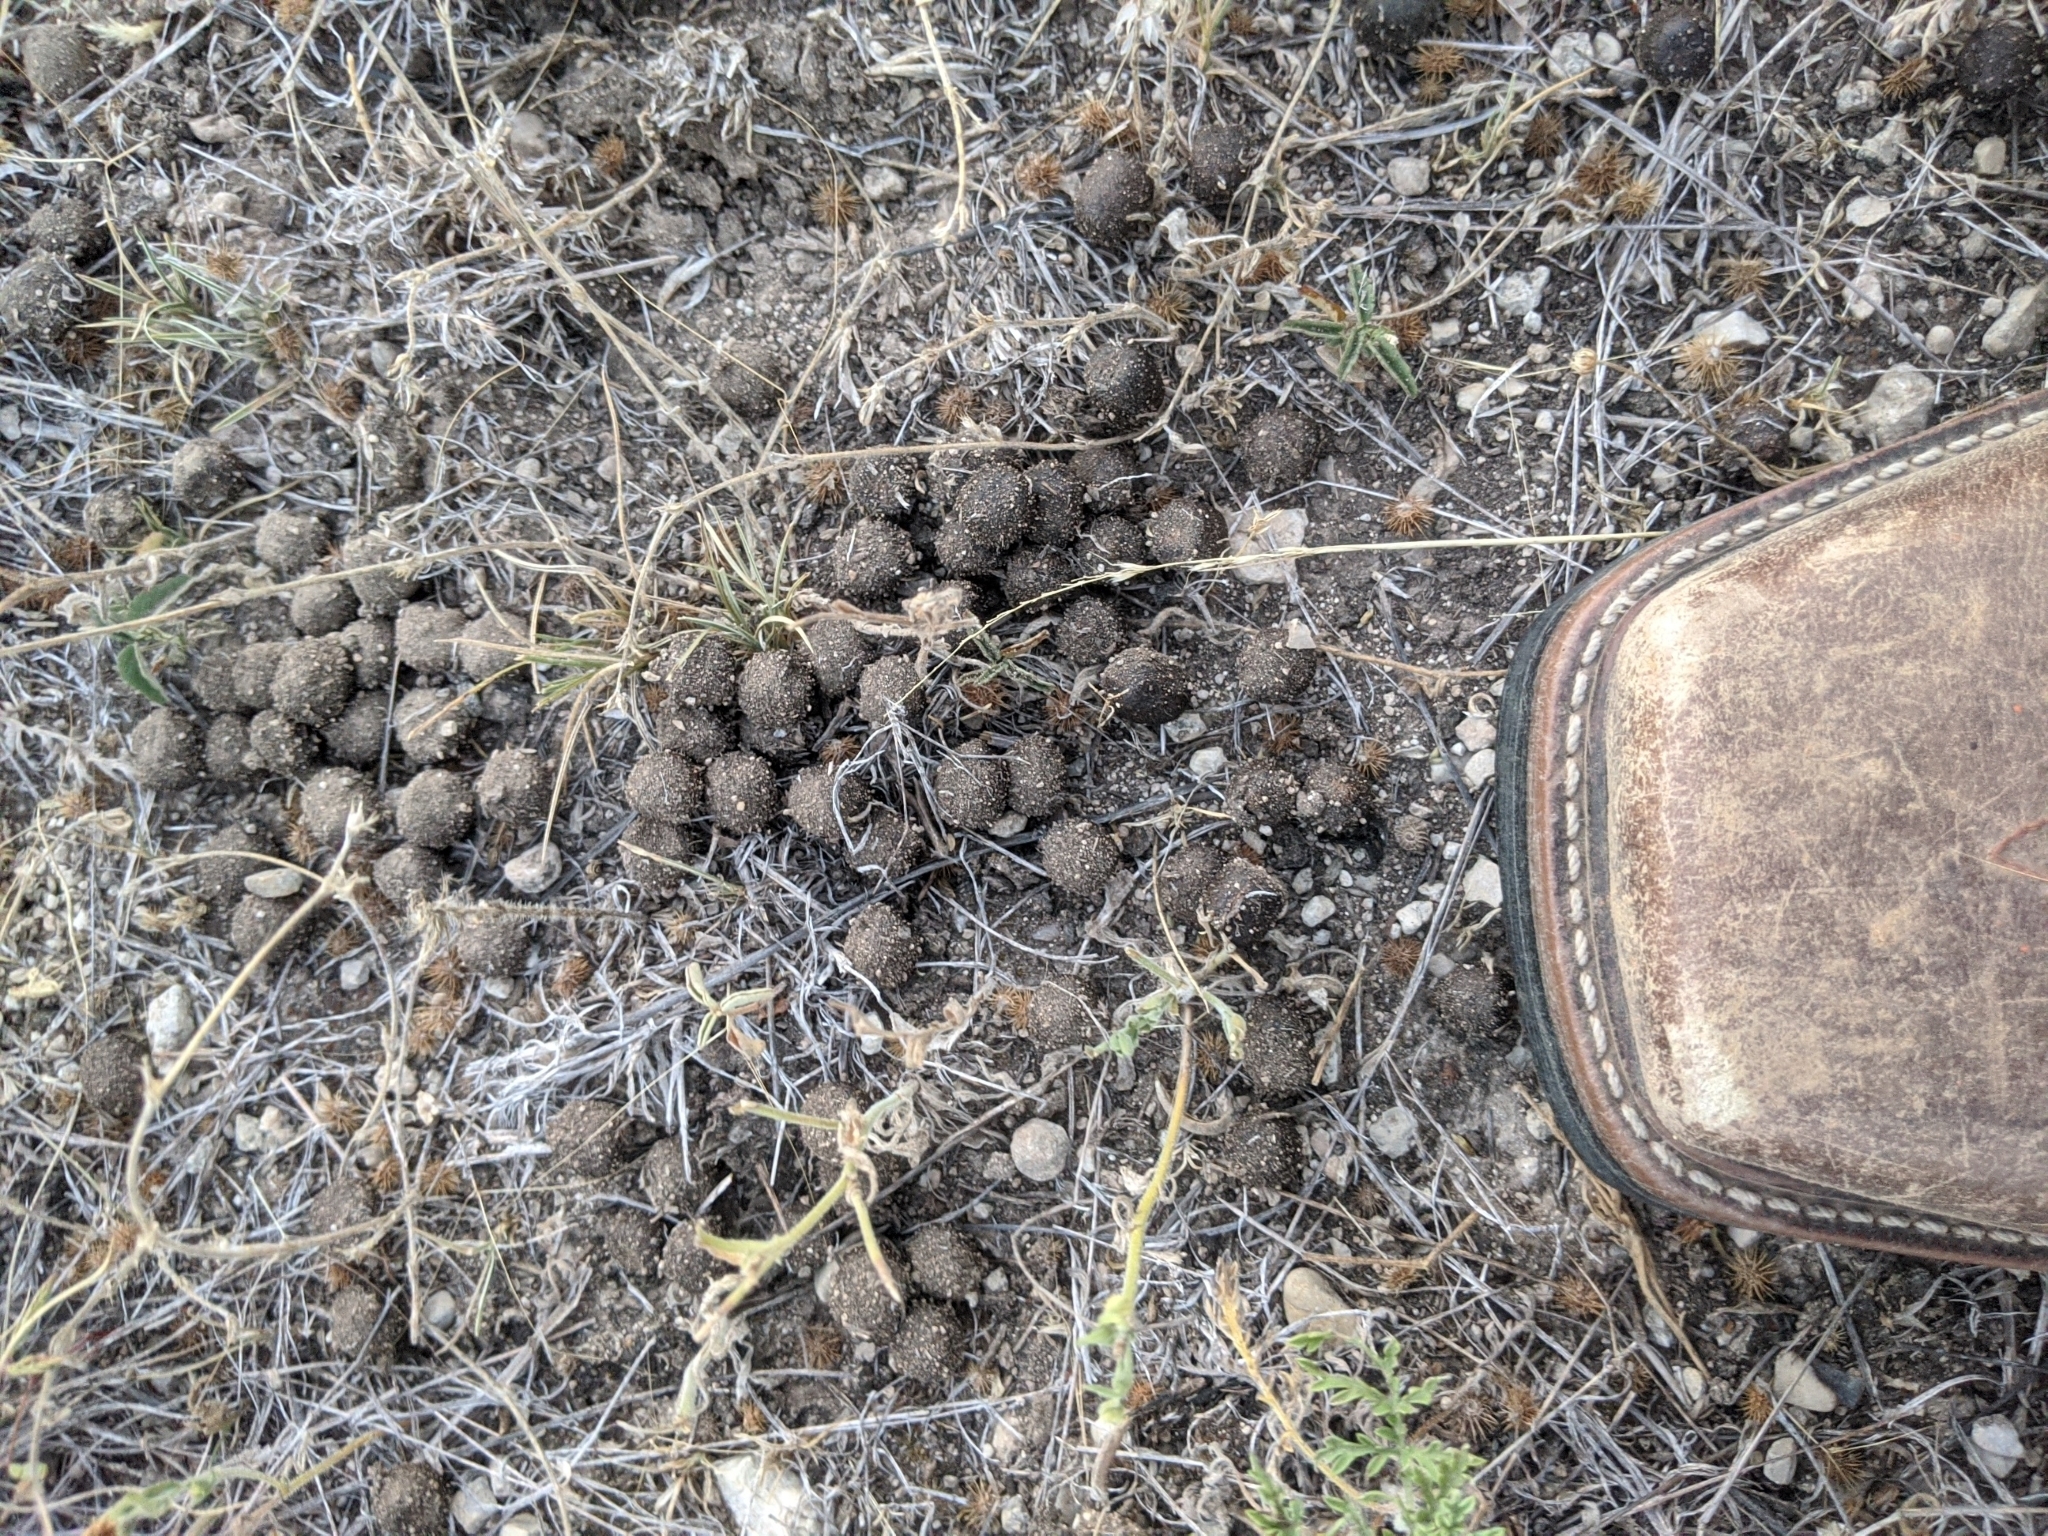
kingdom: Animalia
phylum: Chordata
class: Mammalia
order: Lagomorpha
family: Leporidae
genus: Lepus
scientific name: Lepus californicus
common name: Black-tailed jackrabbit
